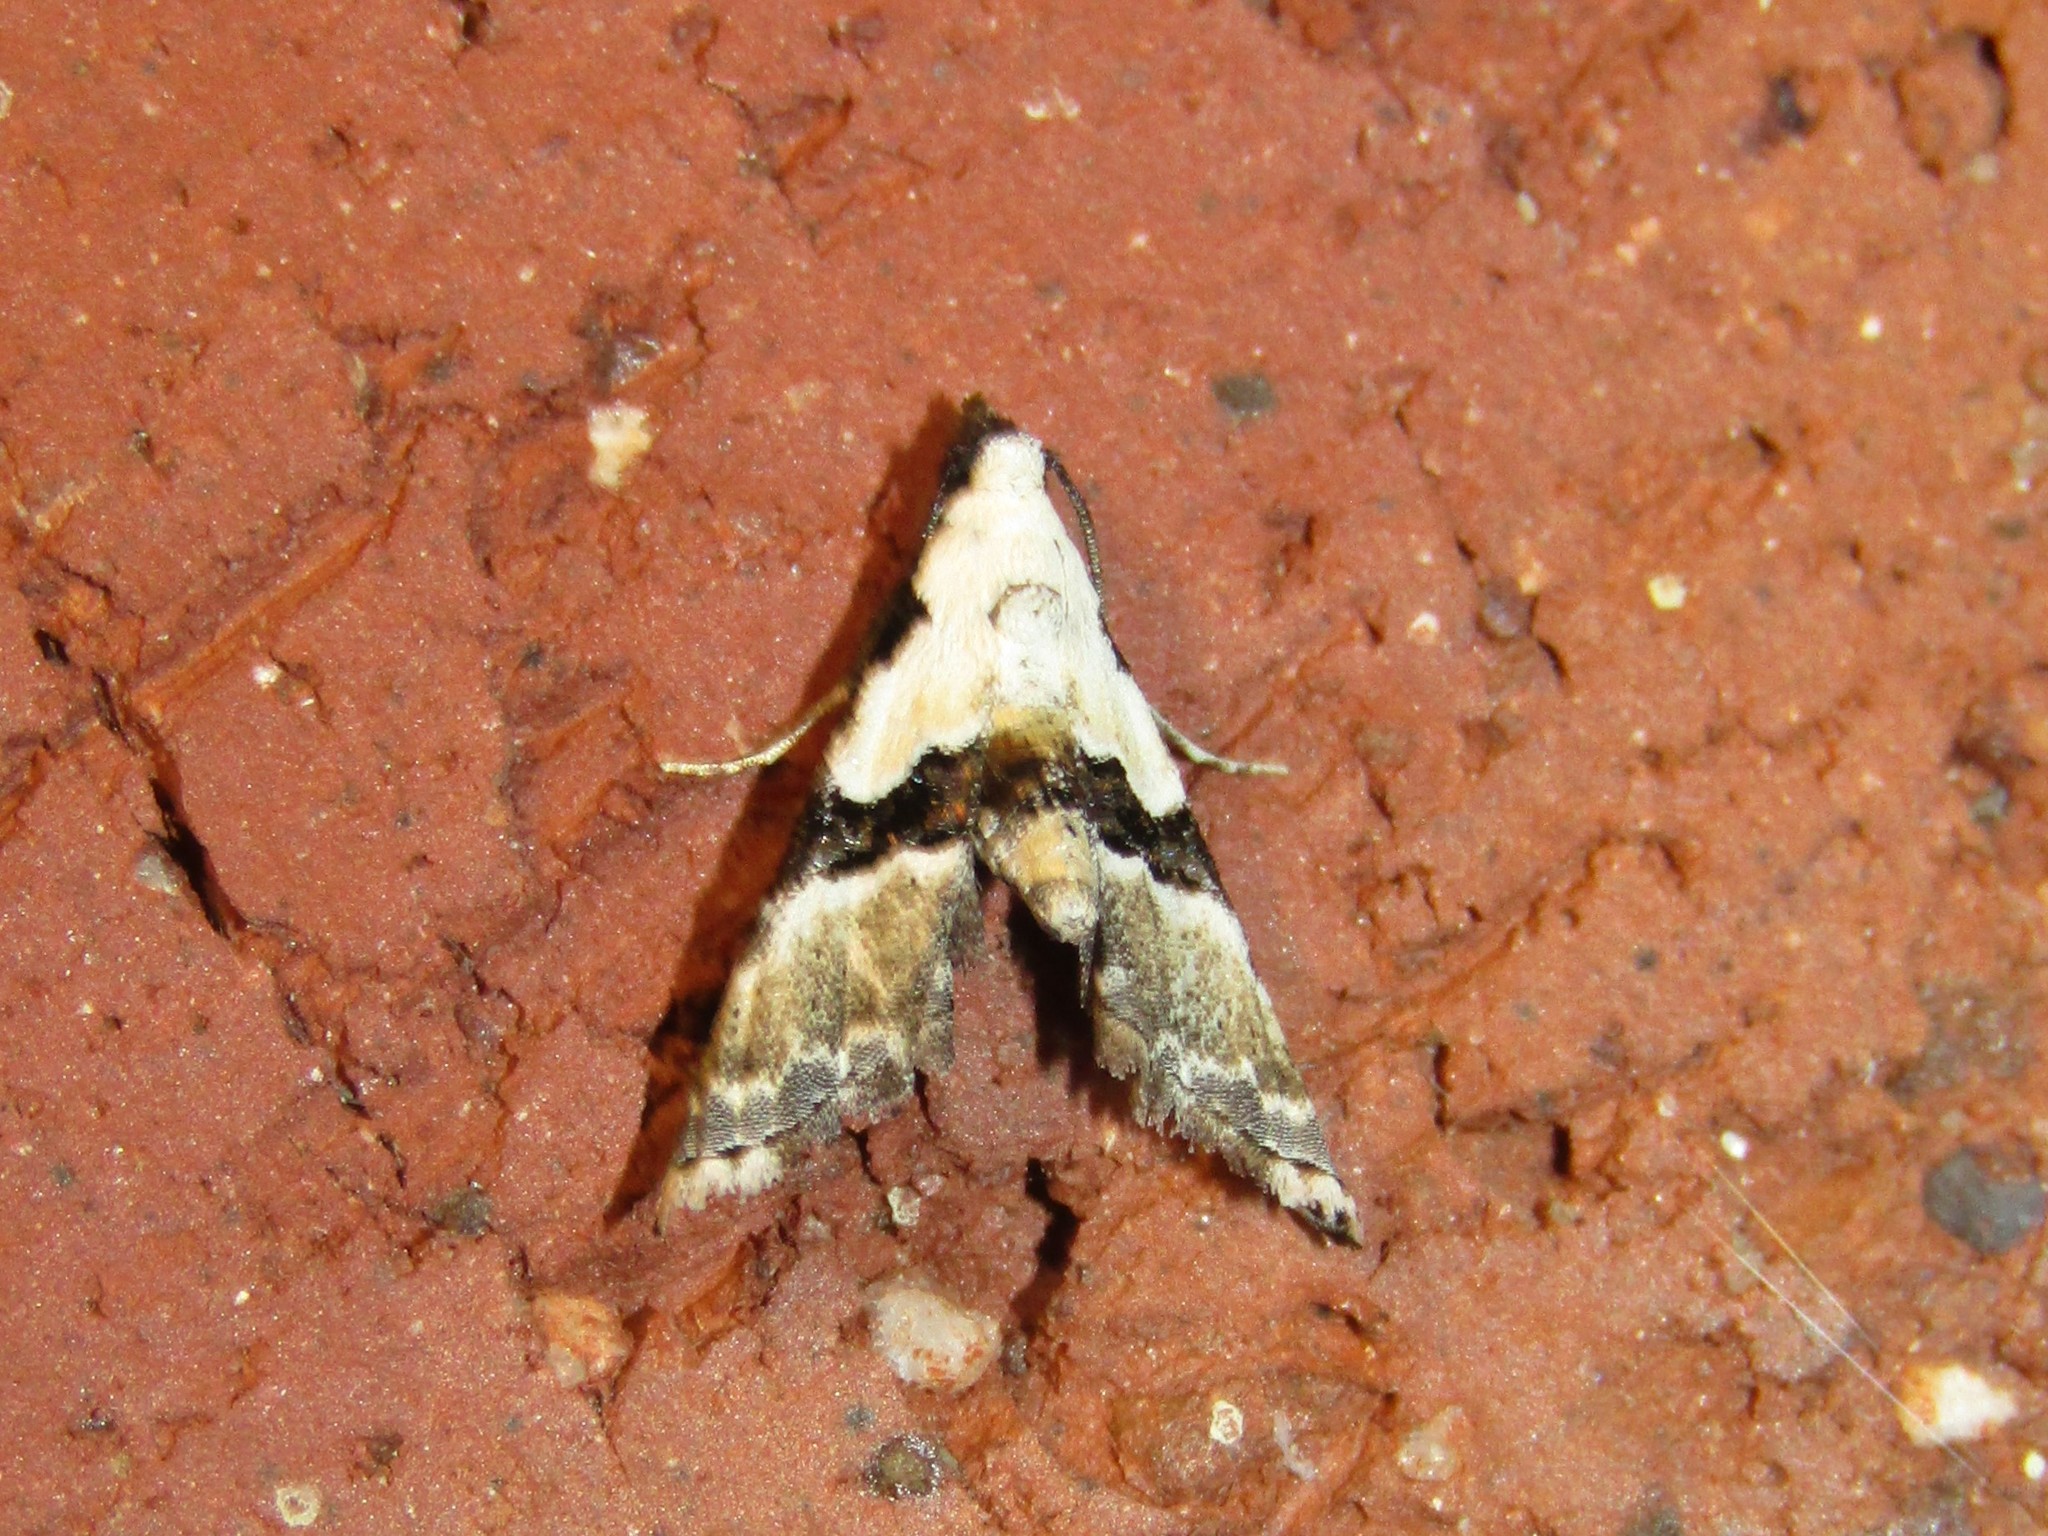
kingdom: Animalia
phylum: Arthropoda
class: Insecta
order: Lepidoptera
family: Noctuidae
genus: Nigetia
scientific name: Nigetia formosalis
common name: Thin-winged owlet
